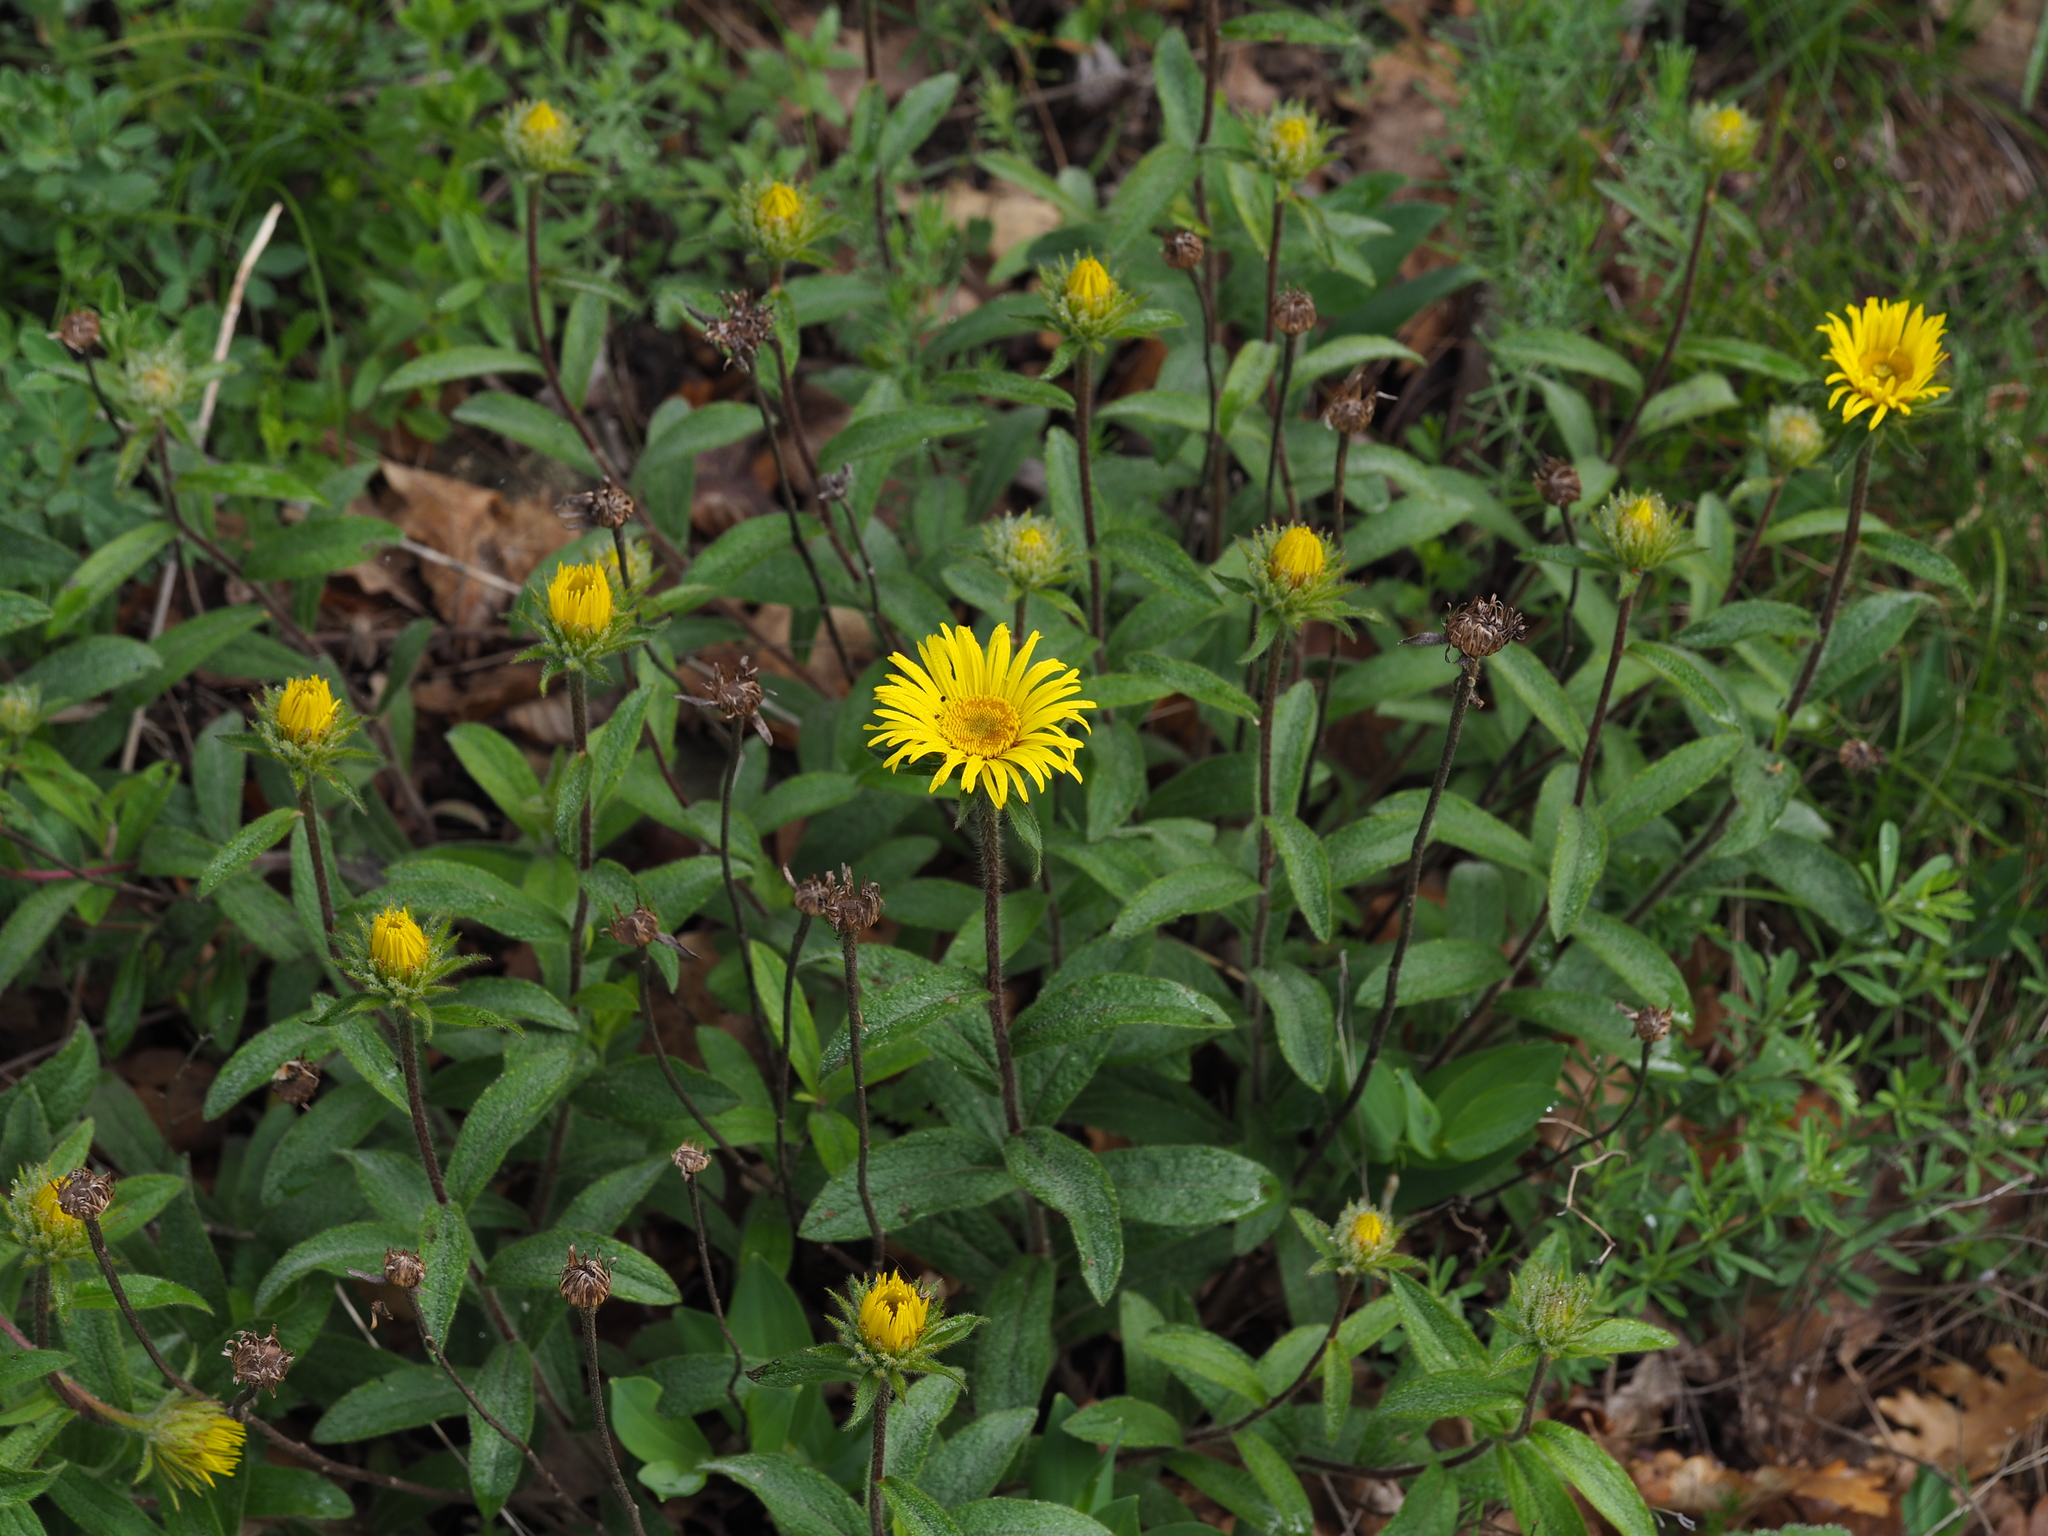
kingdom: Plantae
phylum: Tracheophyta
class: Magnoliopsida
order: Asterales
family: Asteraceae
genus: Pentanema
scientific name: Pentanema hirtum
